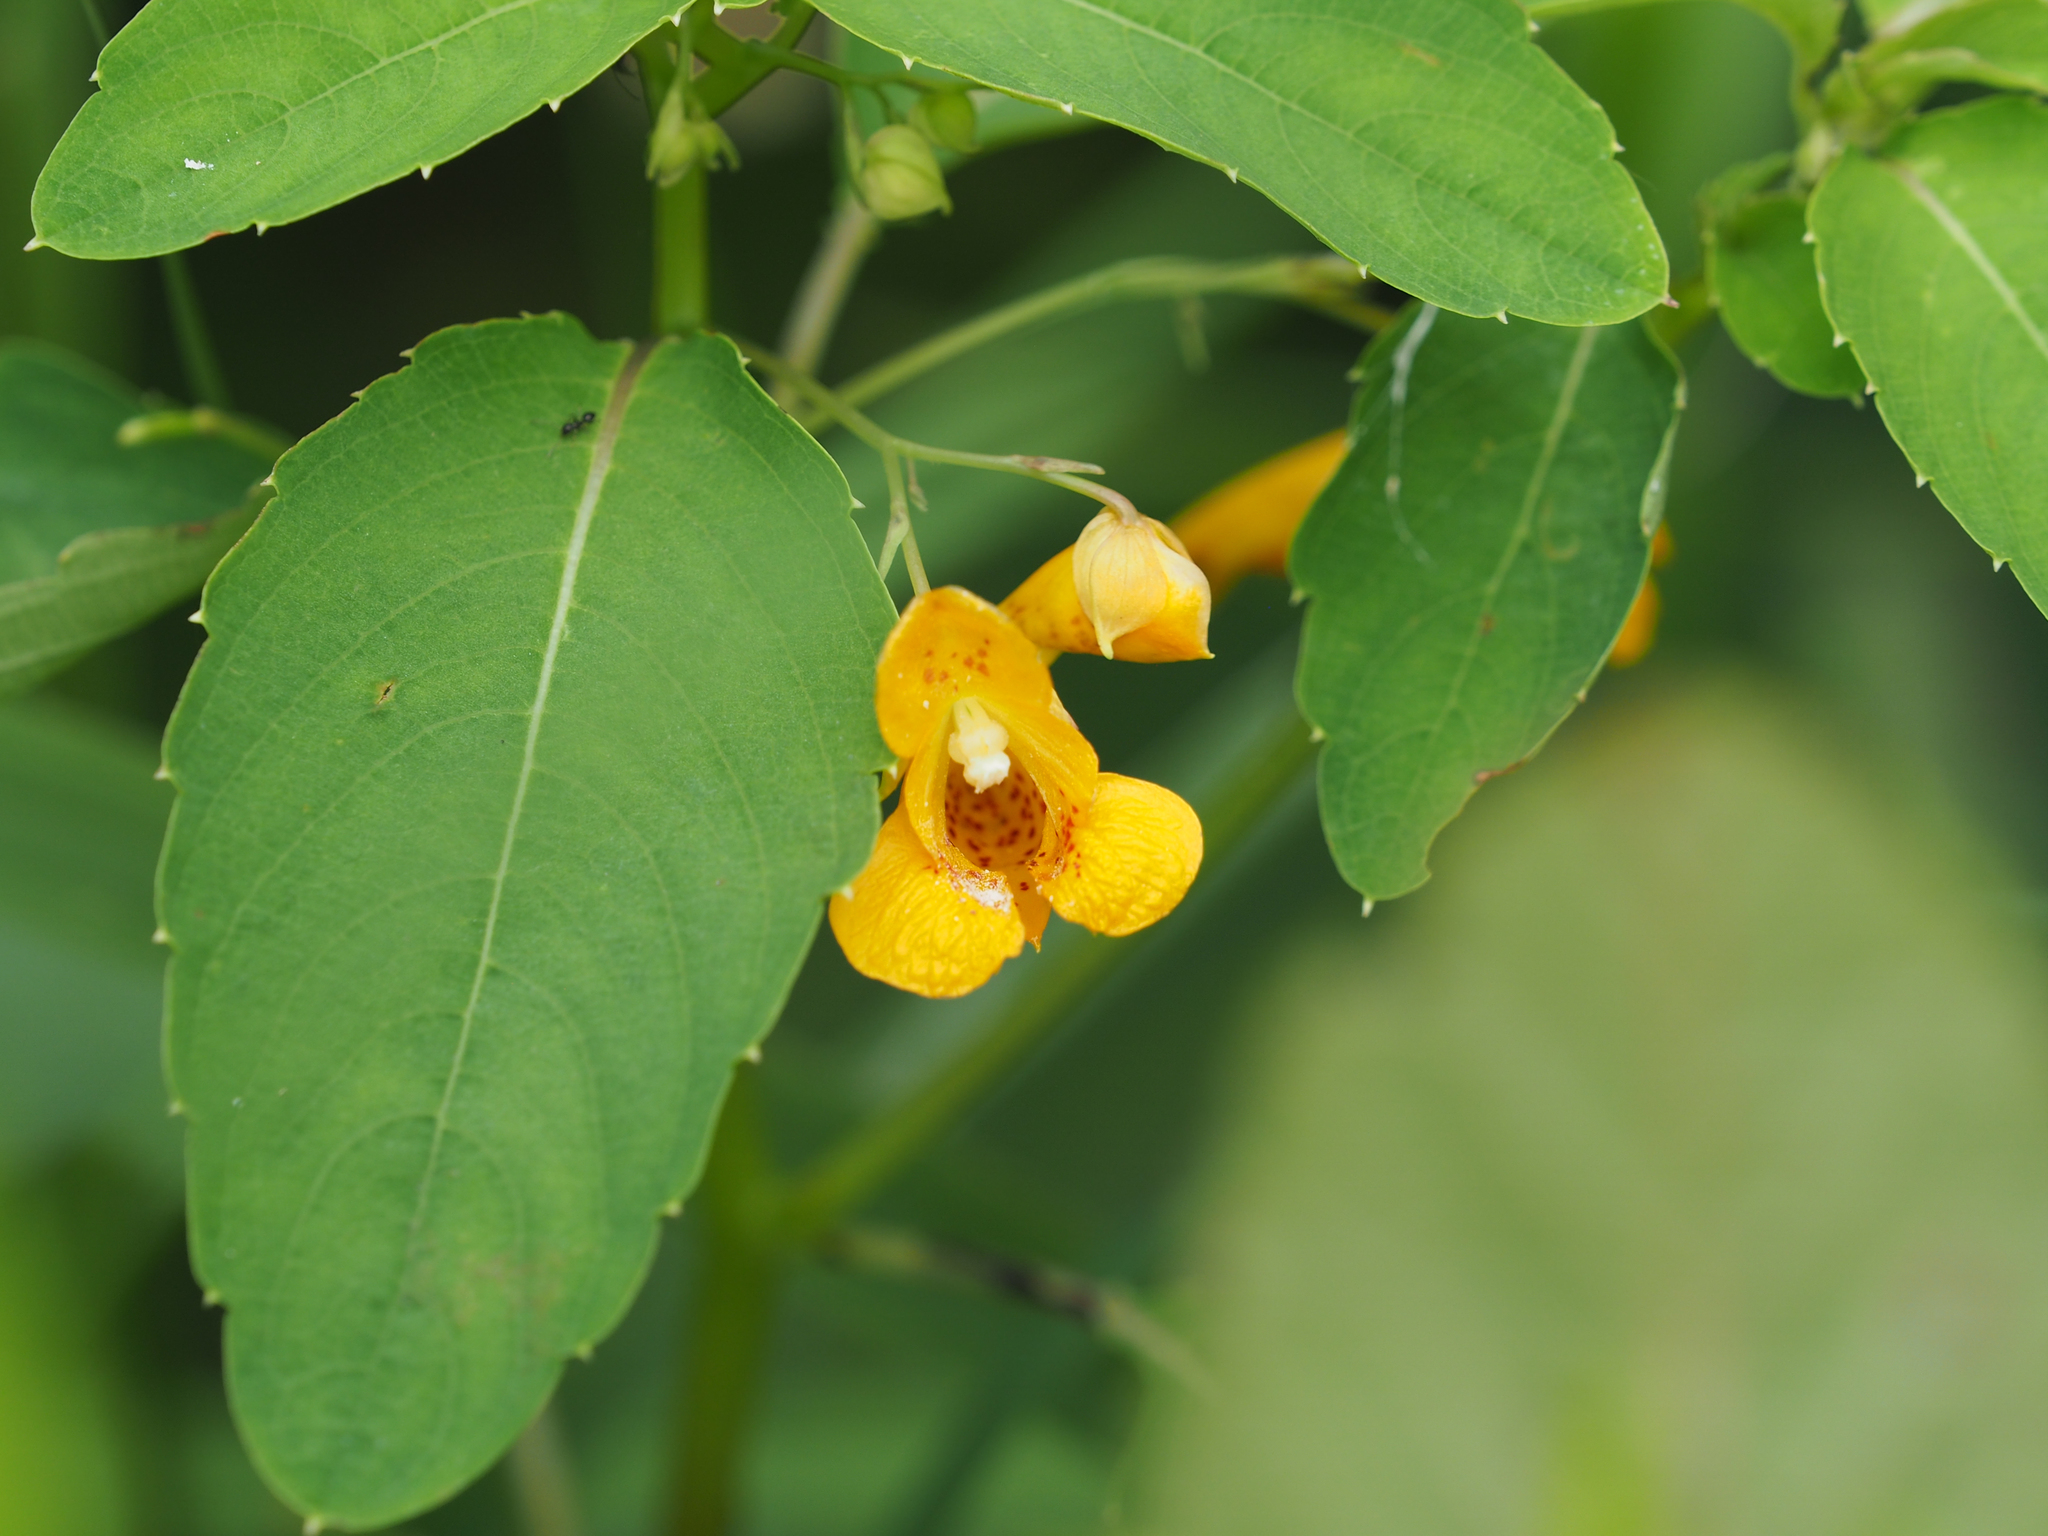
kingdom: Plantae
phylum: Tracheophyta
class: Magnoliopsida
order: Ericales
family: Balsaminaceae
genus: Impatiens
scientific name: Impatiens capensis
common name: Orange balsam
